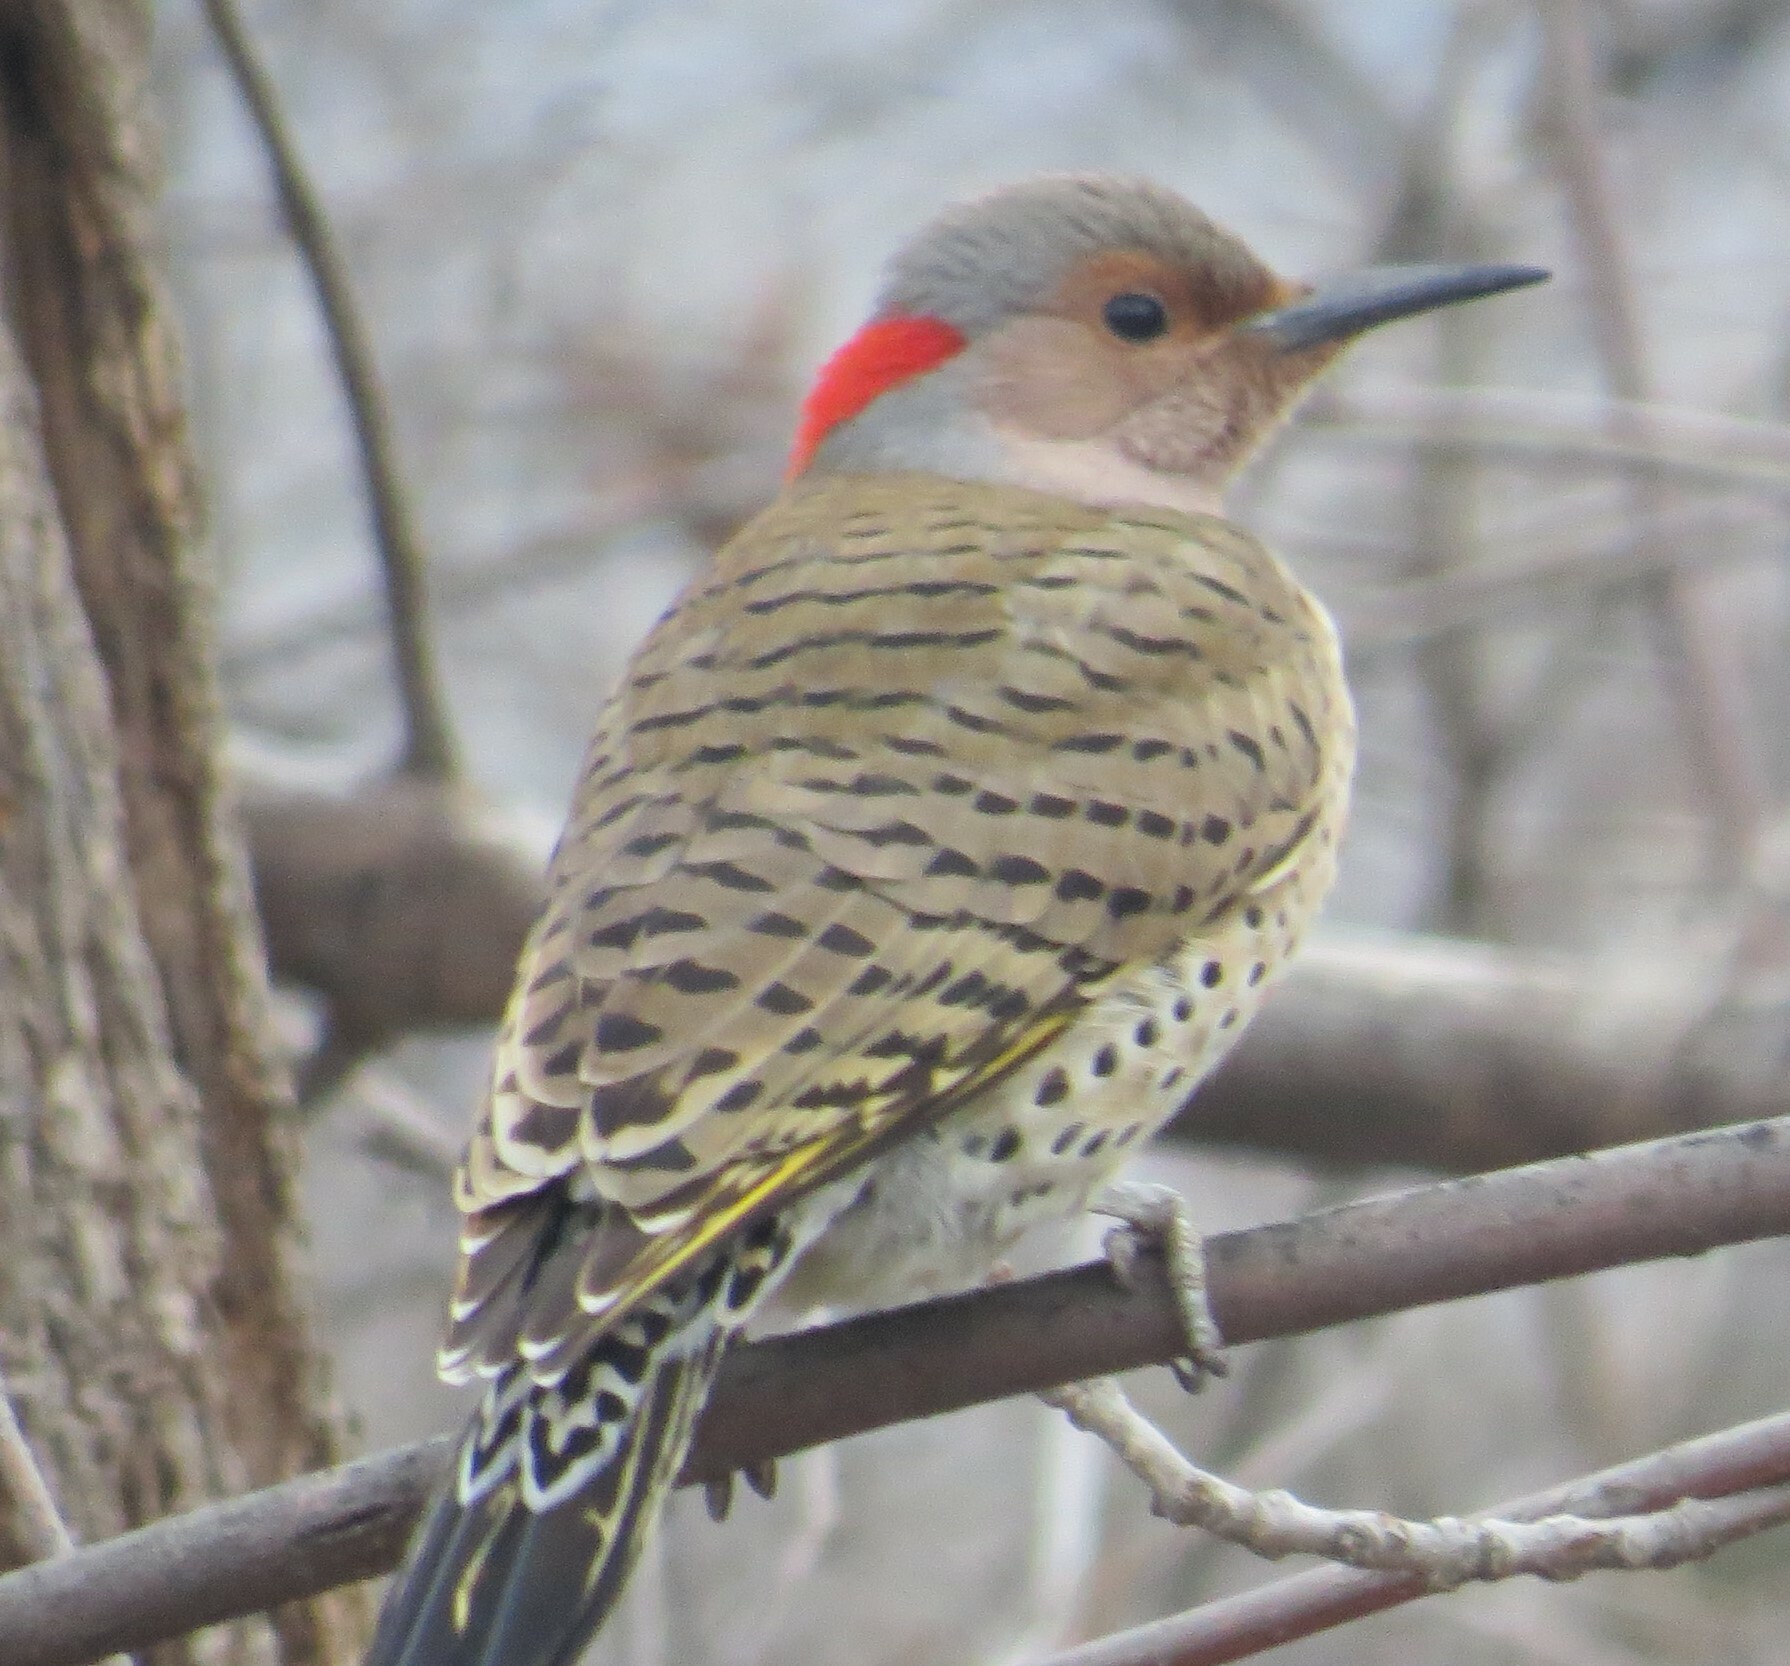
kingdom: Animalia
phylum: Chordata
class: Aves
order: Piciformes
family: Picidae
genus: Colaptes
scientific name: Colaptes auratus
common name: Northern flicker
